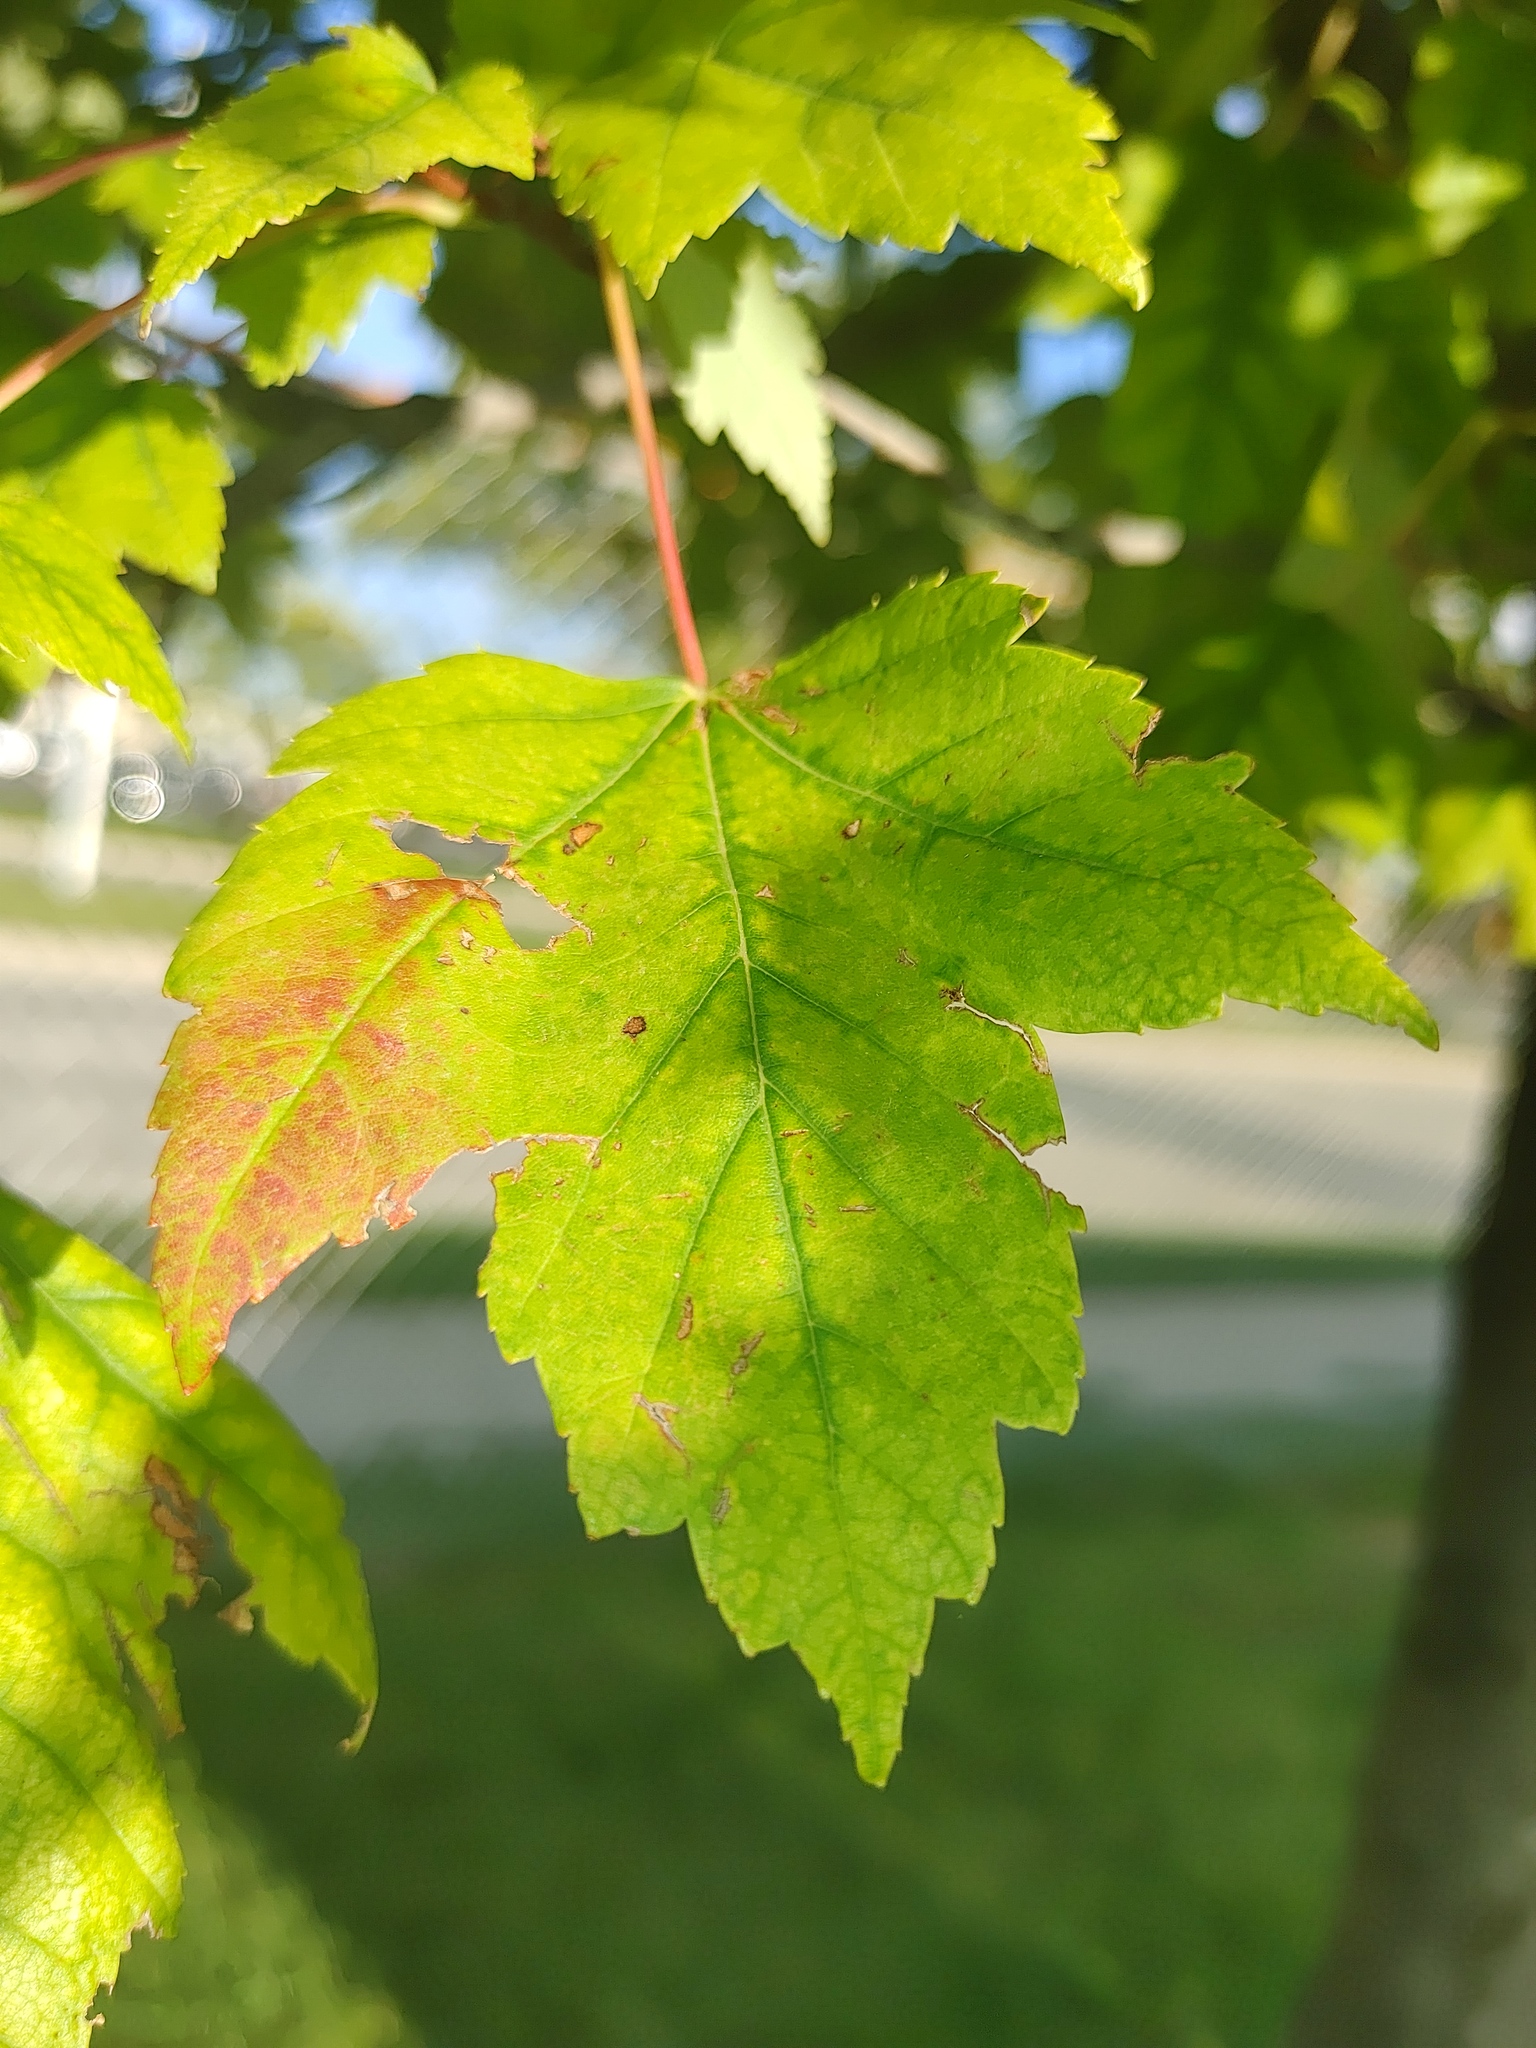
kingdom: Plantae
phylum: Tracheophyta
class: Magnoliopsida
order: Sapindales
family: Sapindaceae
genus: Acer
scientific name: Acer rubrum
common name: Red maple
